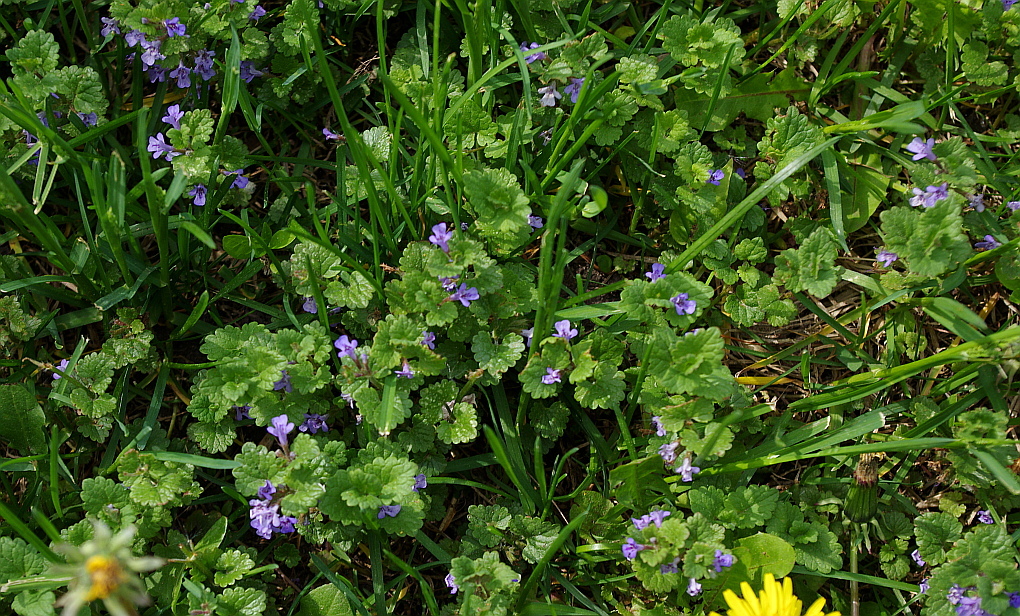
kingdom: Plantae
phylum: Tracheophyta
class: Magnoliopsida
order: Lamiales
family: Lamiaceae
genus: Glechoma
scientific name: Glechoma hederacea
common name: Ground ivy
